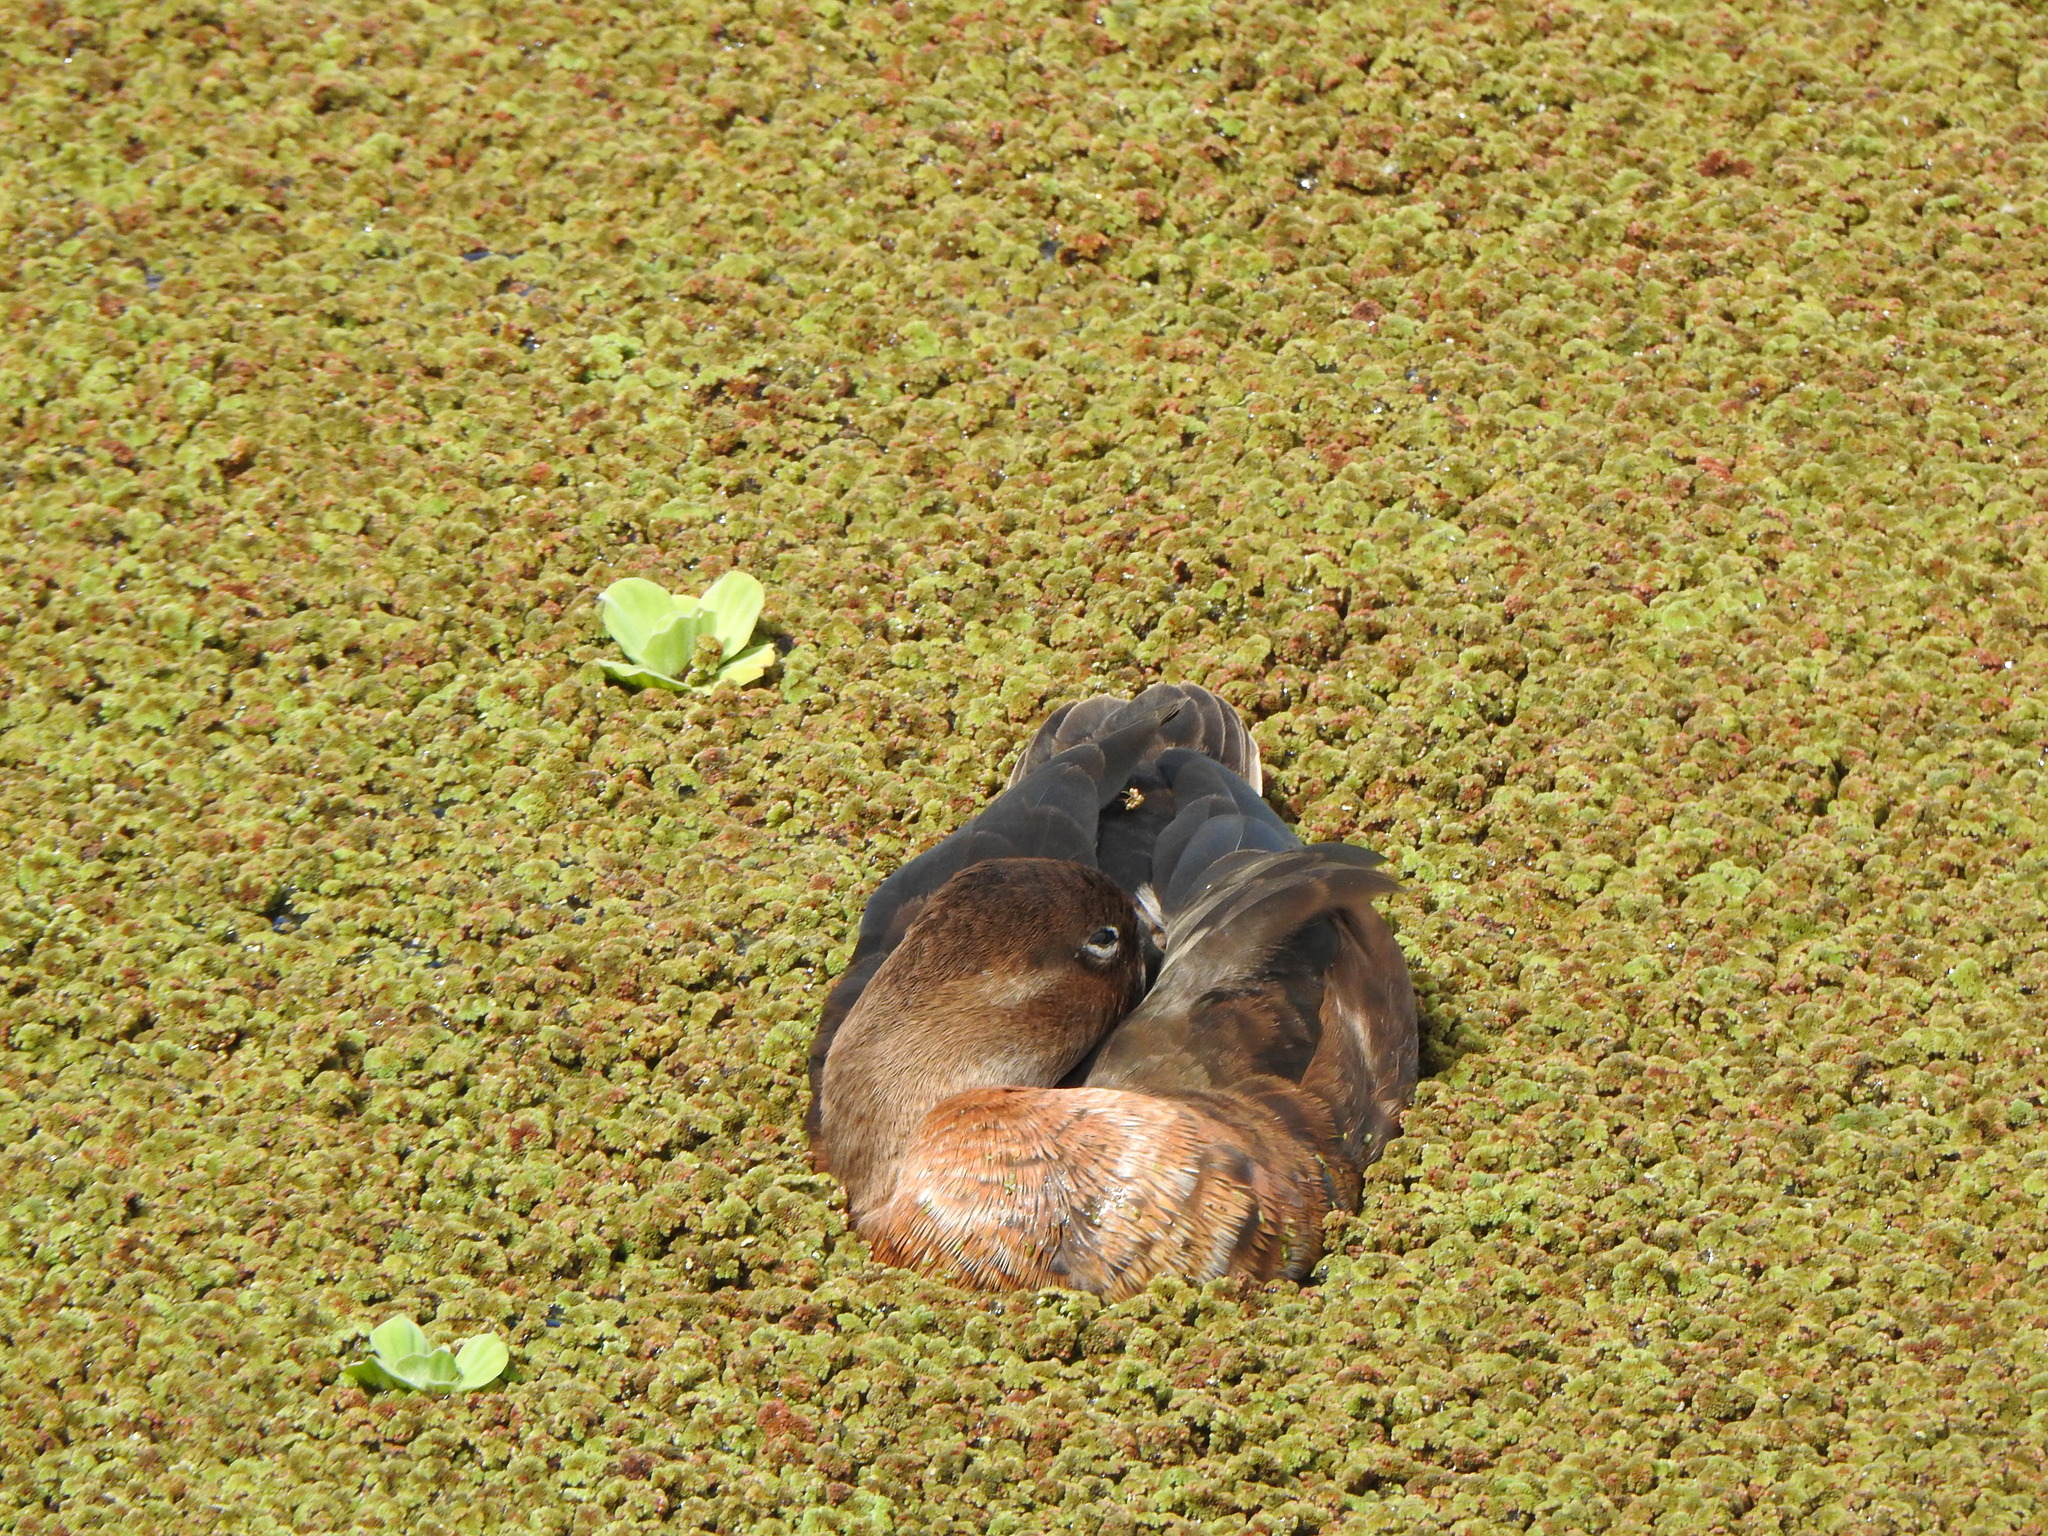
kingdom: Animalia
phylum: Chordata
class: Aves
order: Anseriformes
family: Anatidae
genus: Netta
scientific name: Netta peposaca
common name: Rosy-billed pochard
